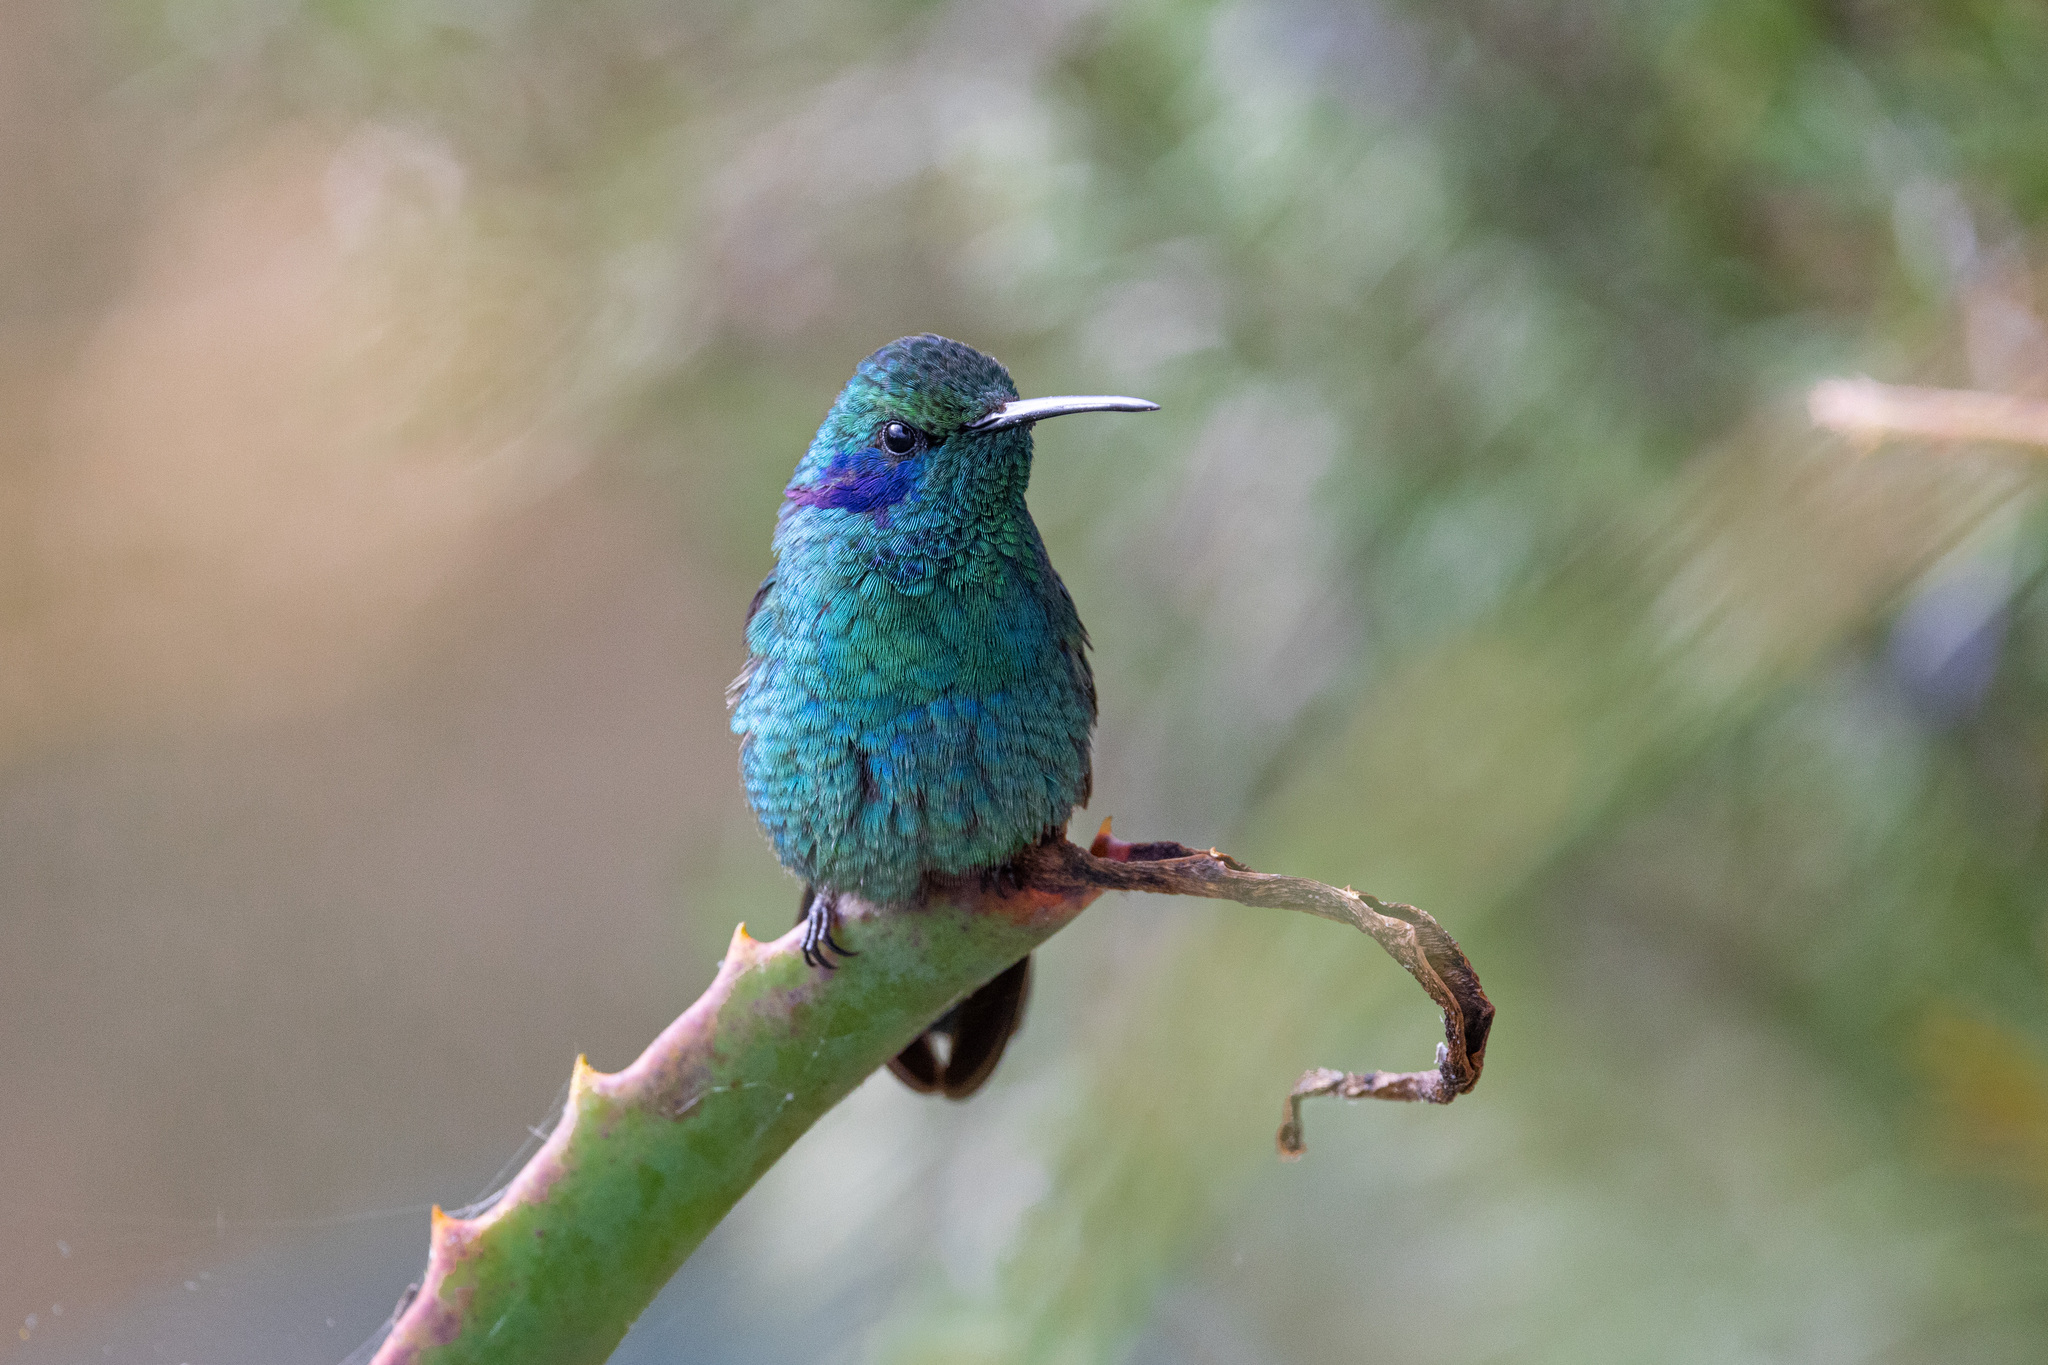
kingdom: Animalia
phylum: Chordata
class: Aves
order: Apodiformes
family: Trochilidae
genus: Colibri
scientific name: Colibri cyanotus
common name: Lesser violetear
